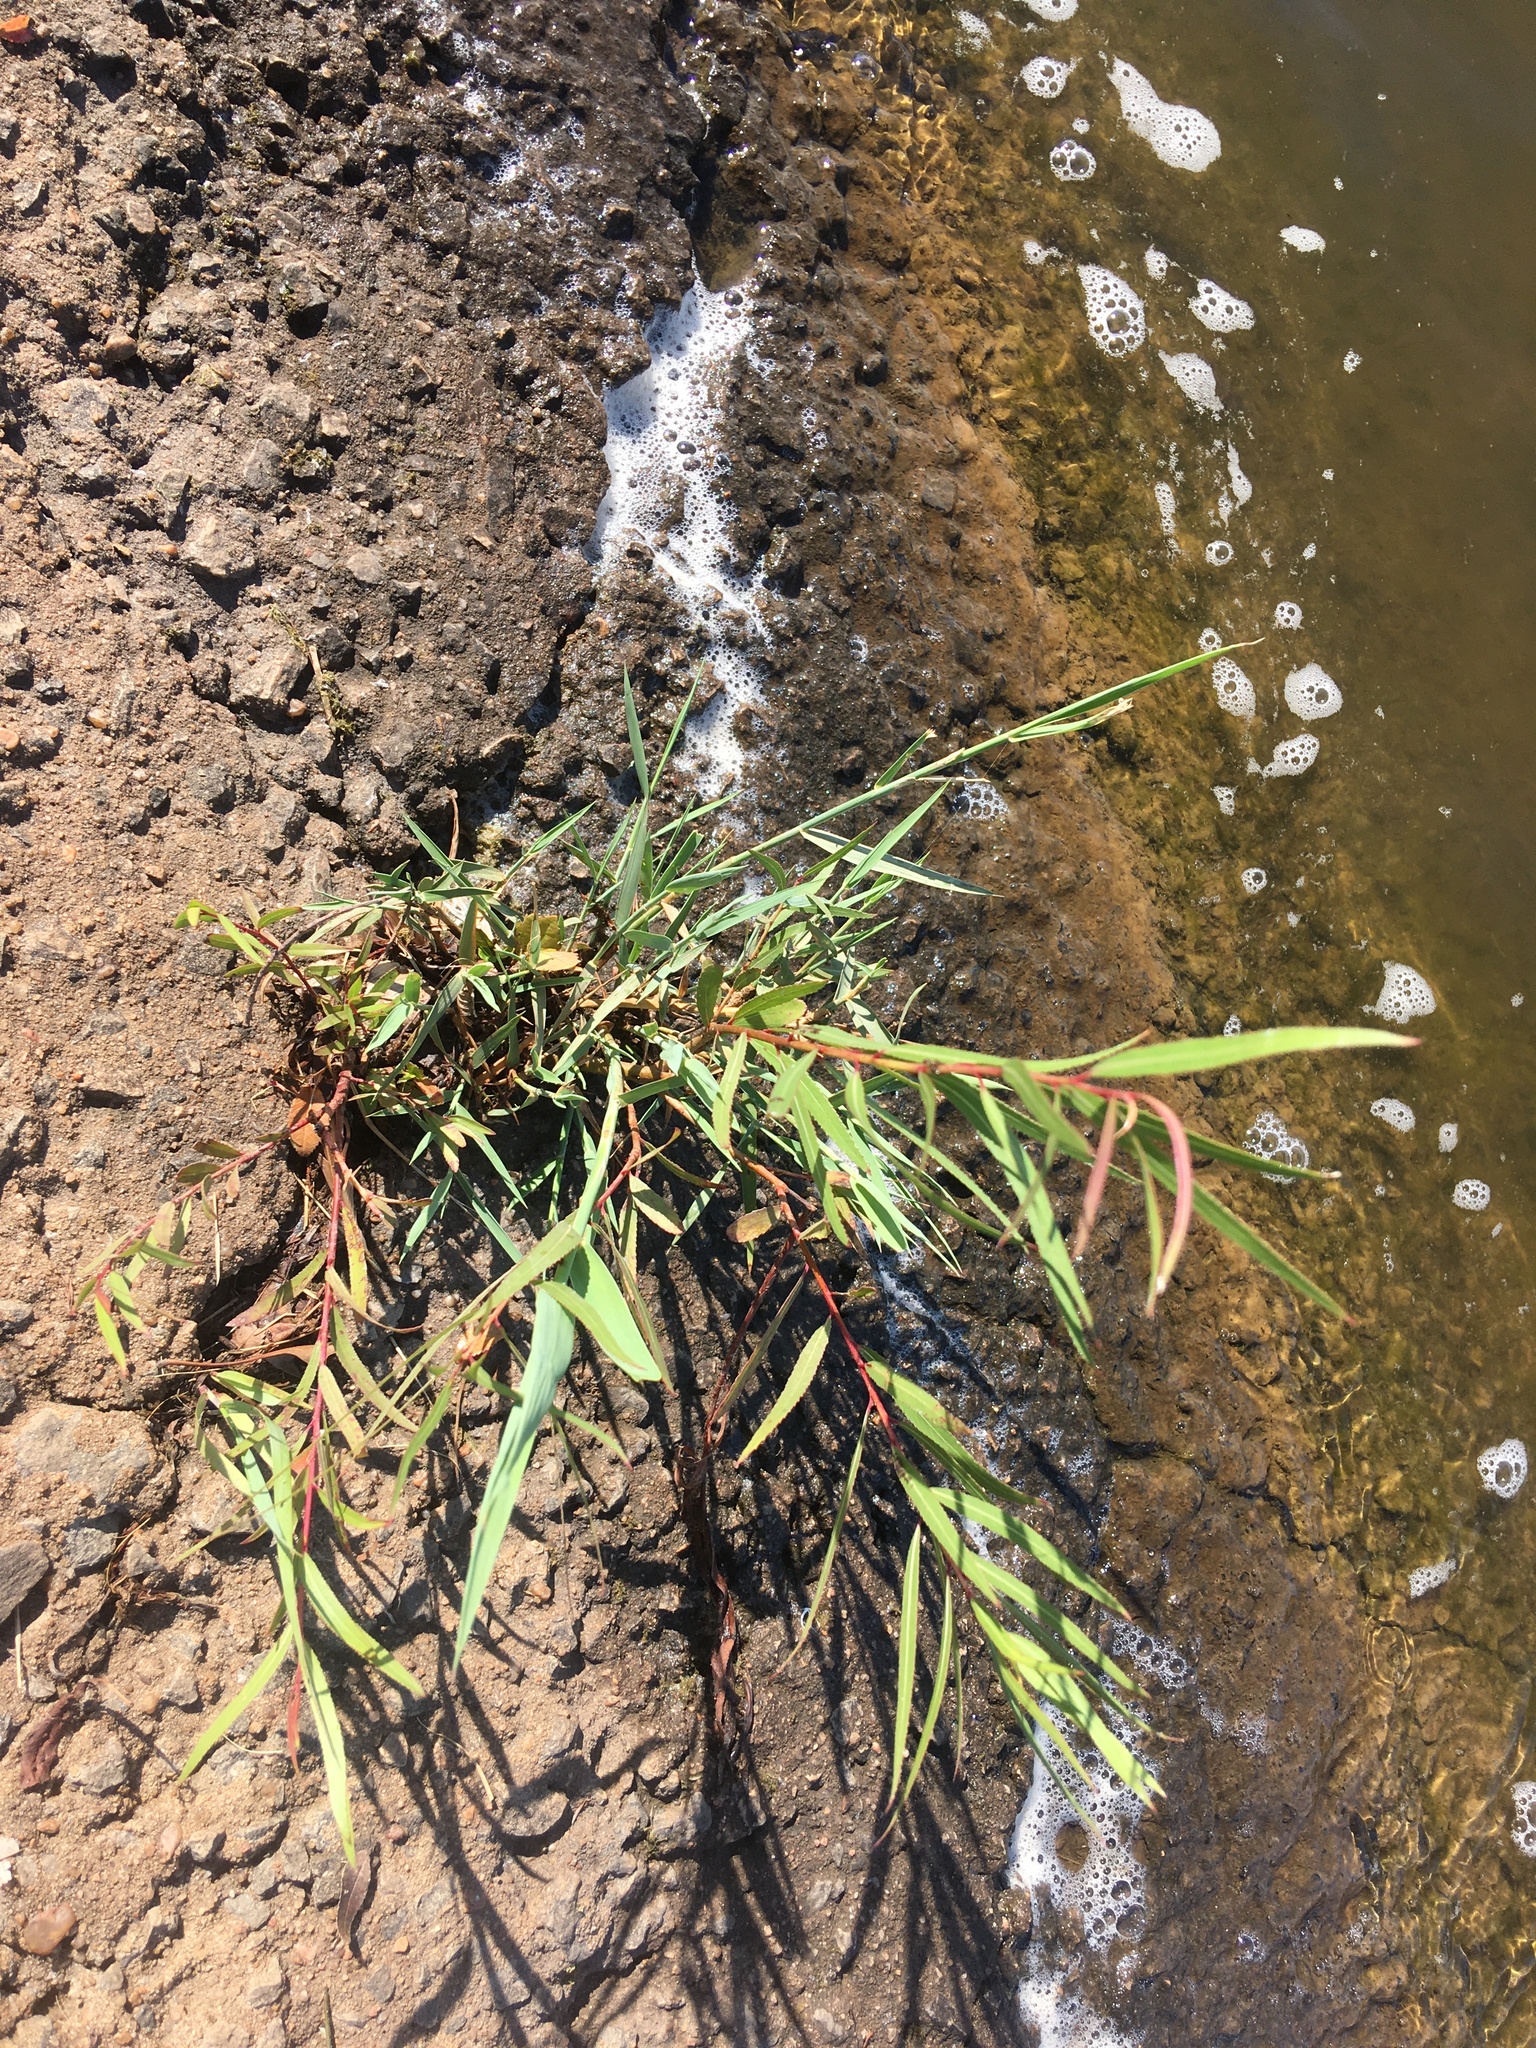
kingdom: Plantae
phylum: Tracheophyta
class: Magnoliopsida
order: Malpighiales
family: Salicaceae
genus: Salix
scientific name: Salix nigra
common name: Black willow
